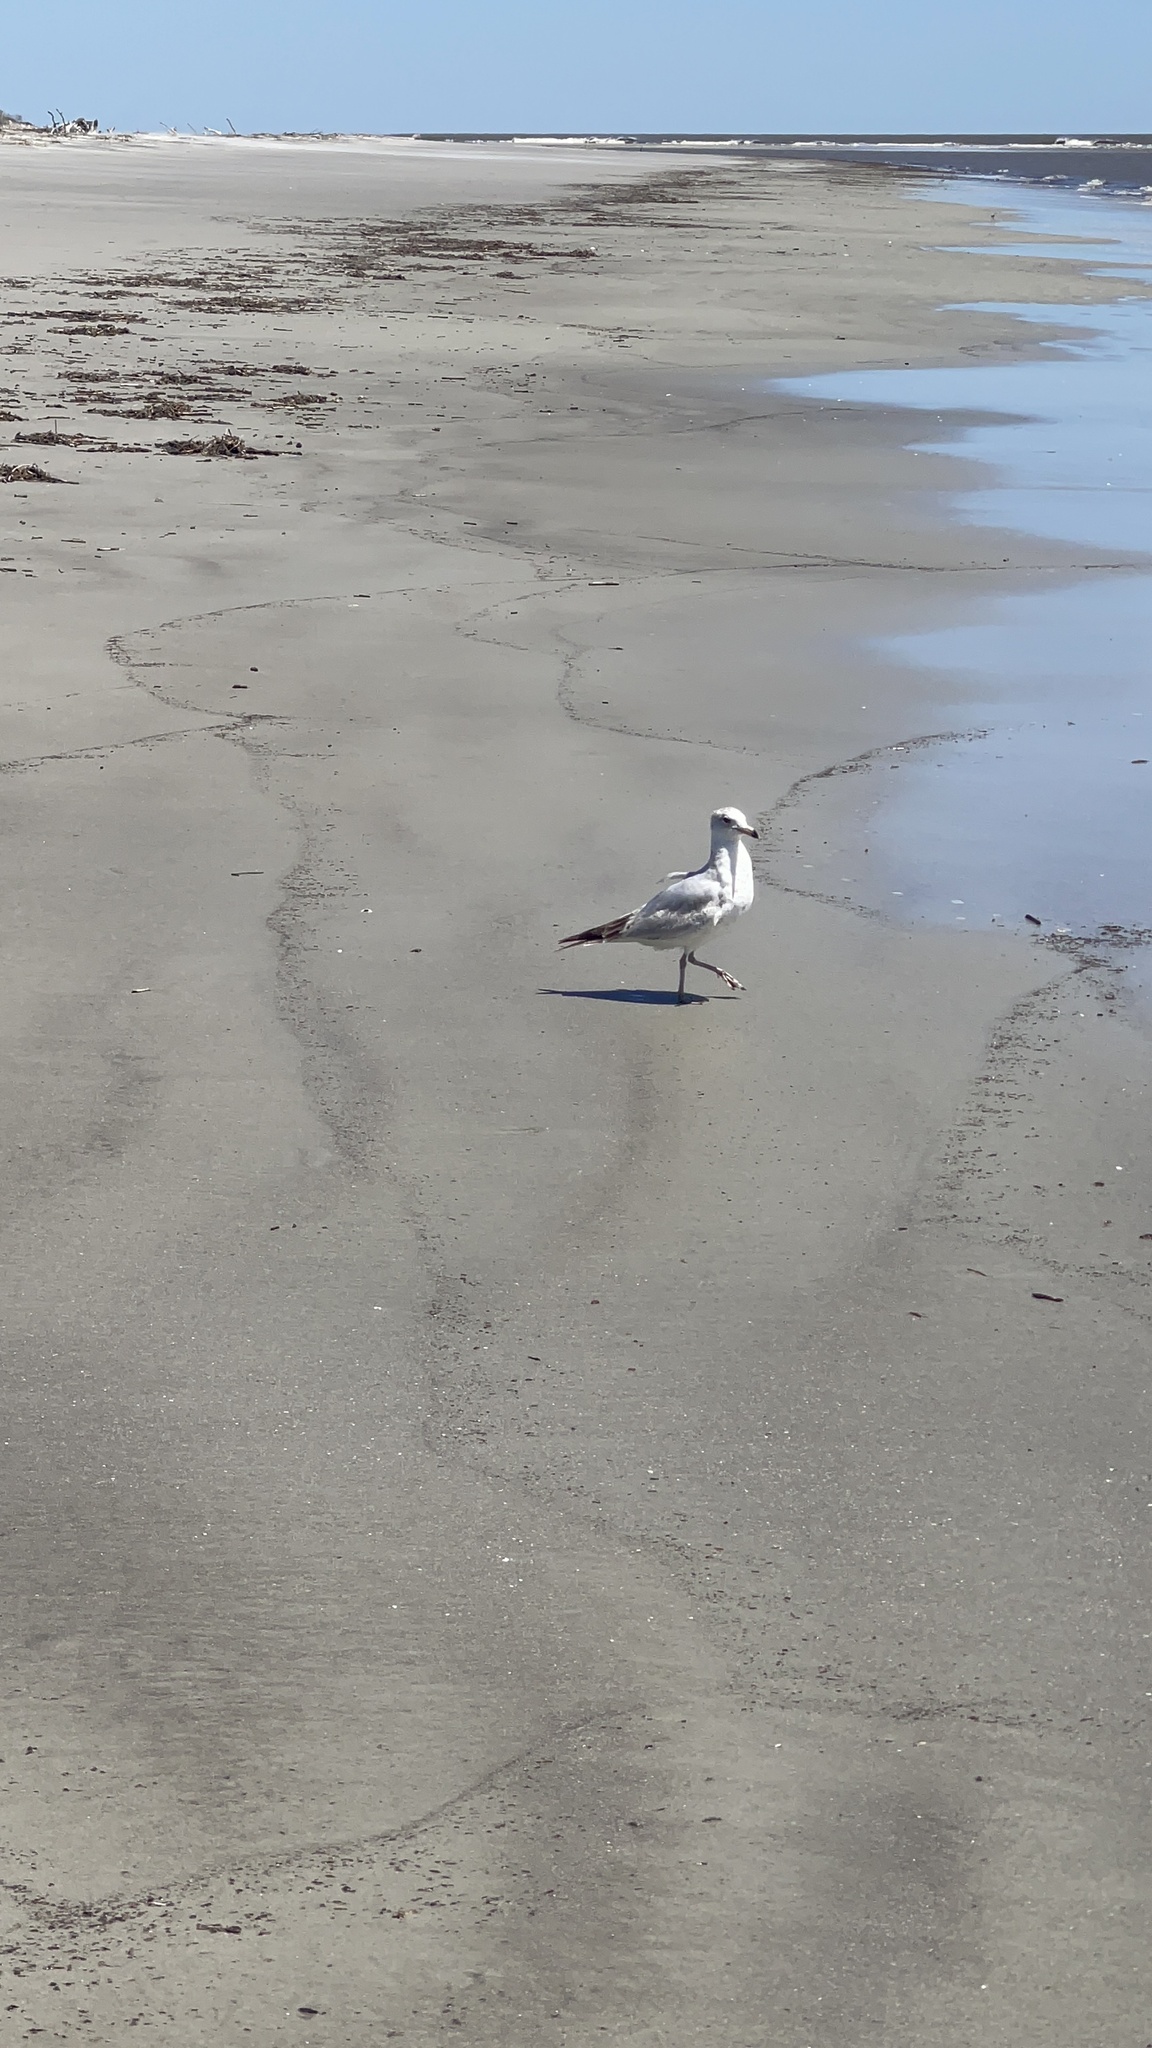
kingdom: Animalia
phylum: Chordata
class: Aves
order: Charadriiformes
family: Laridae
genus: Larus
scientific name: Larus delawarensis
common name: Ring-billed gull
